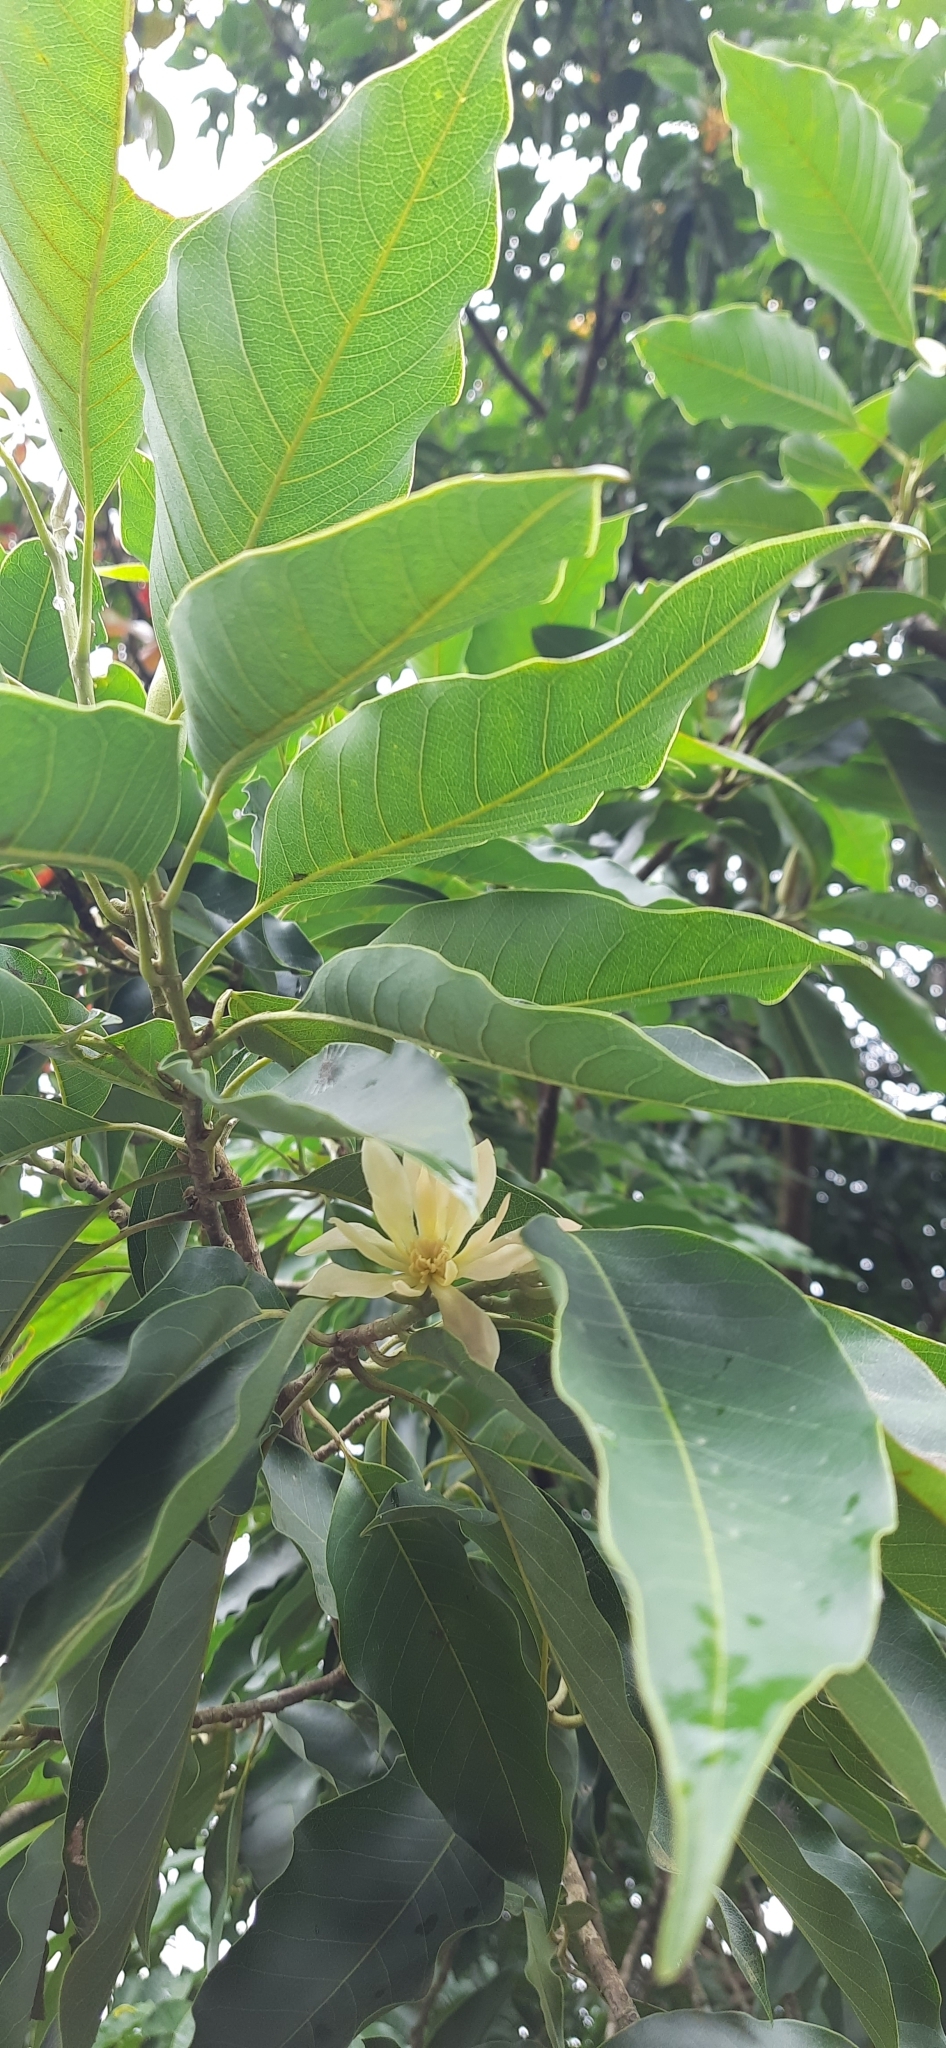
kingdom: Plantae
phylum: Tracheophyta
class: Magnoliopsida
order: Magnoliales
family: Magnoliaceae
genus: Magnolia
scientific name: Magnolia alba
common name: White champaca
